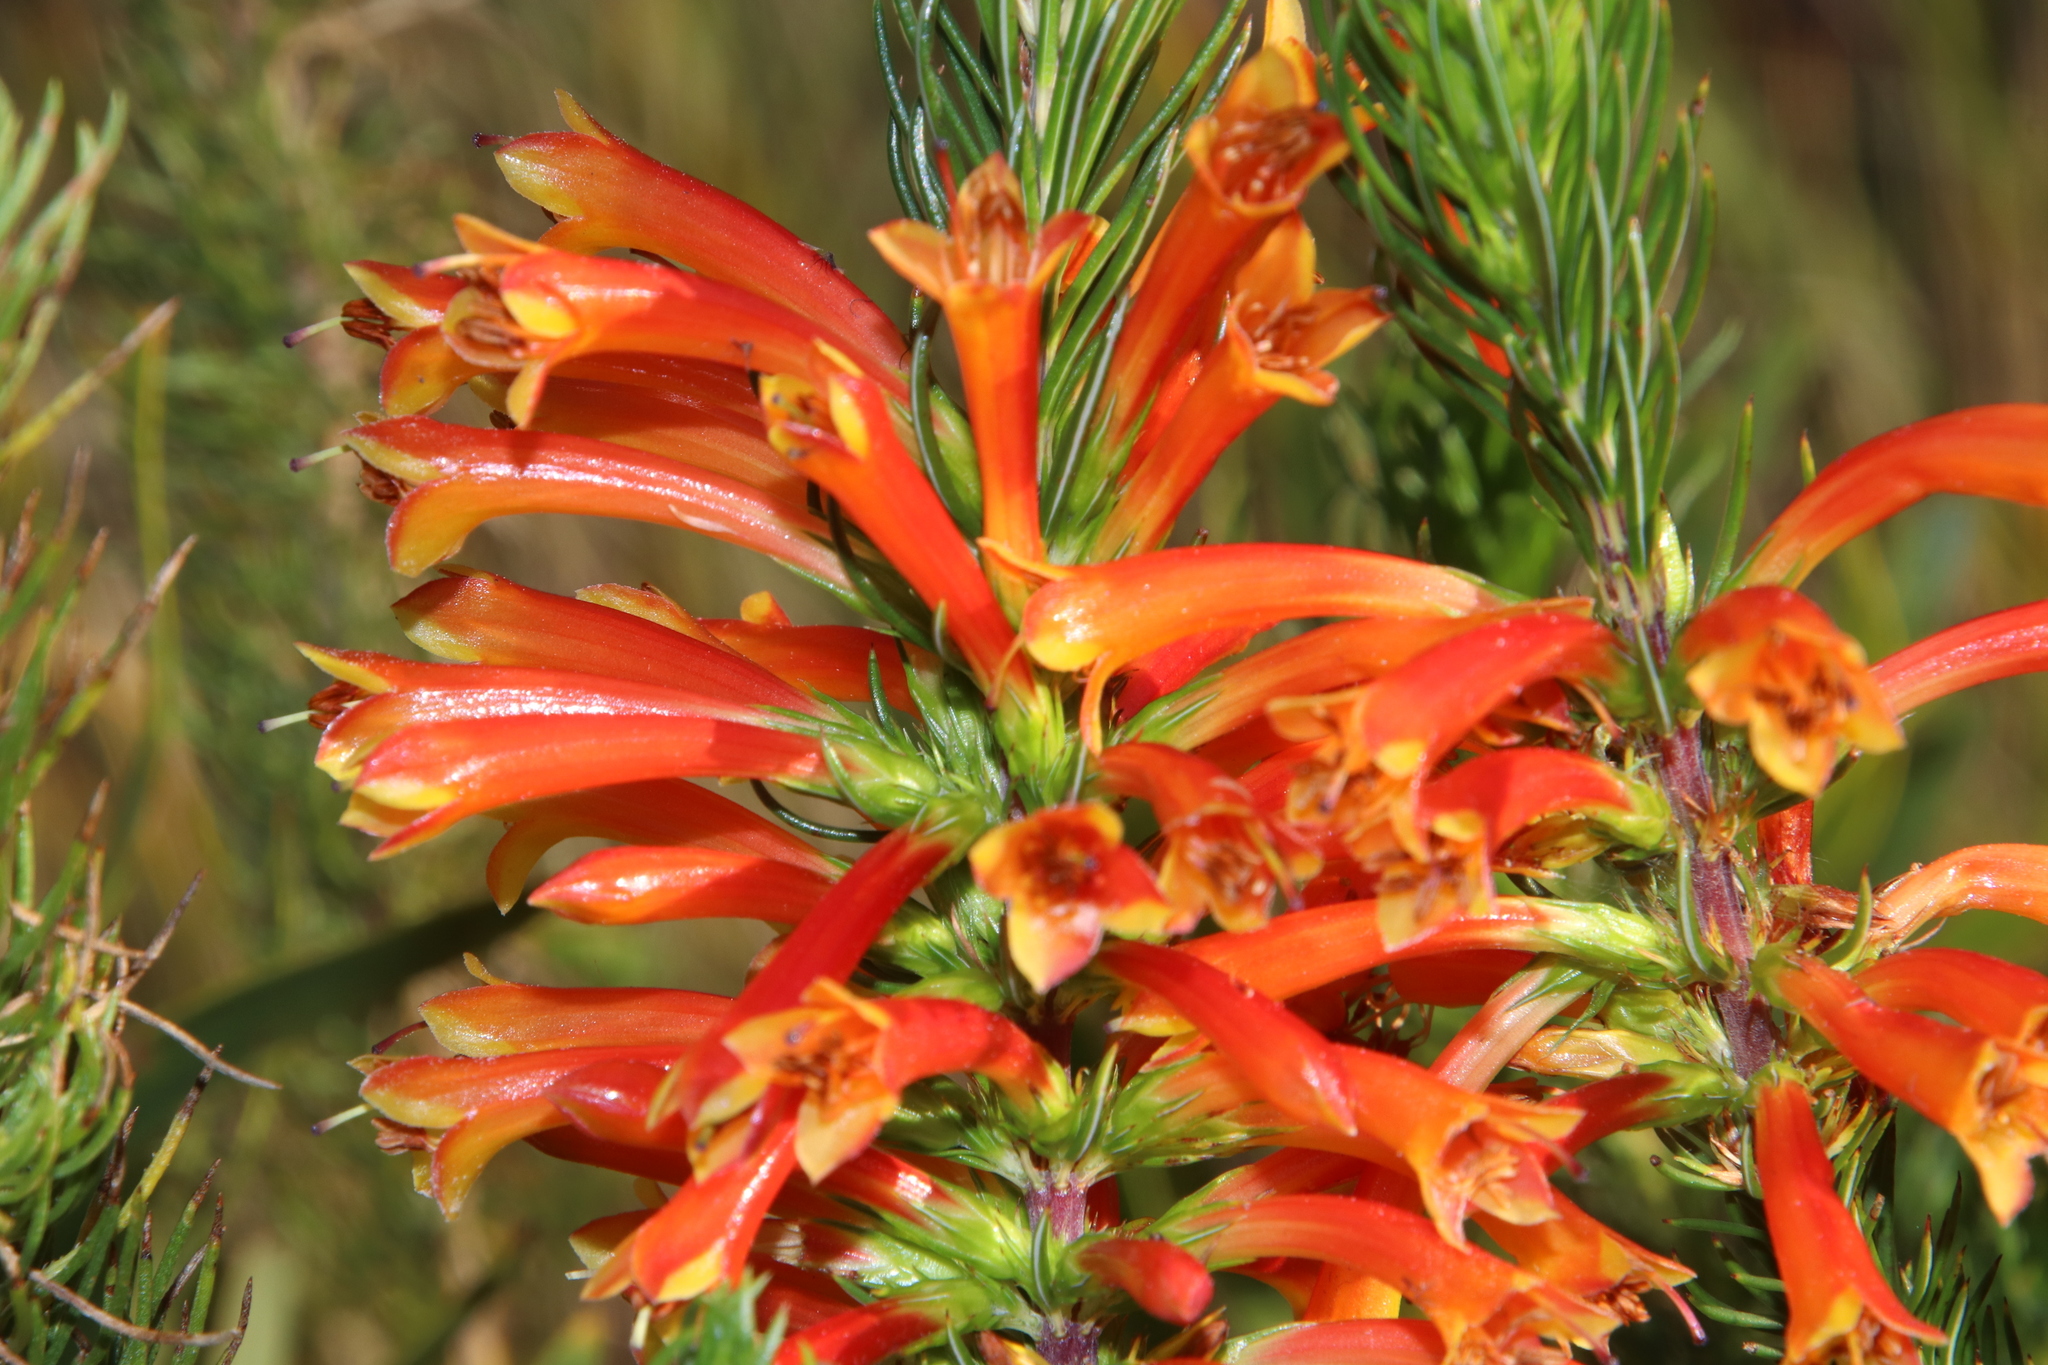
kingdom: Plantae
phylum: Tracheophyta
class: Magnoliopsida
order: Ericales
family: Ericaceae
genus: Erica
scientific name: Erica grandiflora
